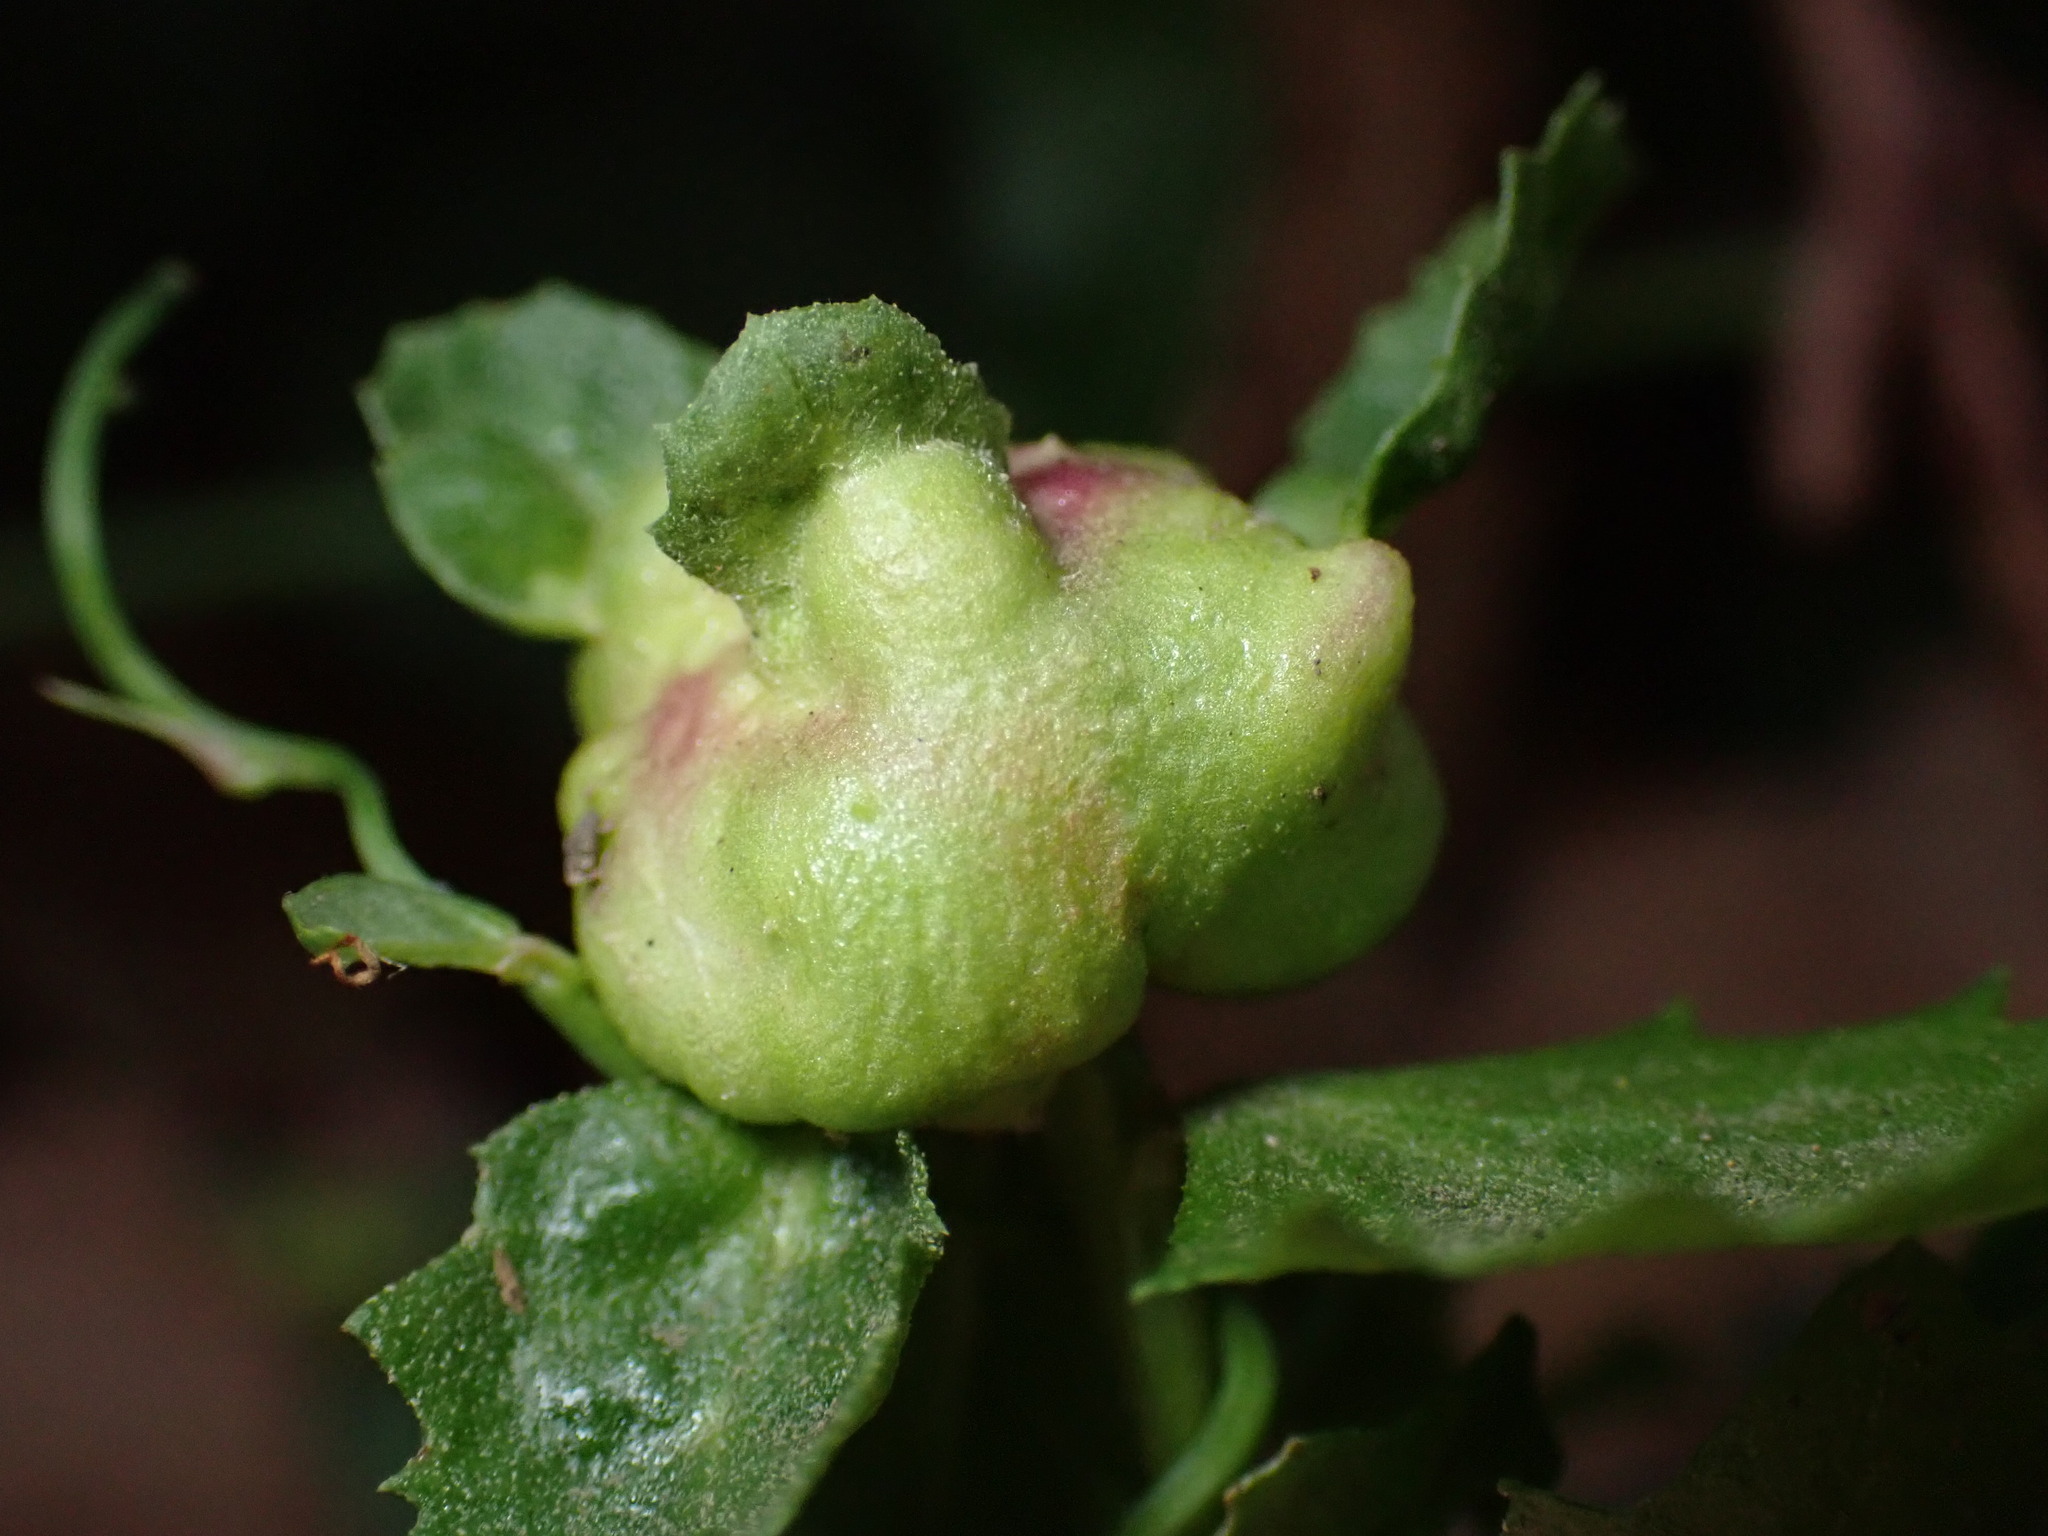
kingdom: Animalia
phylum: Arthropoda
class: Insecta
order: Diptera
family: Cecidomyiidae
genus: Rhopalomyia
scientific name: Rhopalomyia californica
